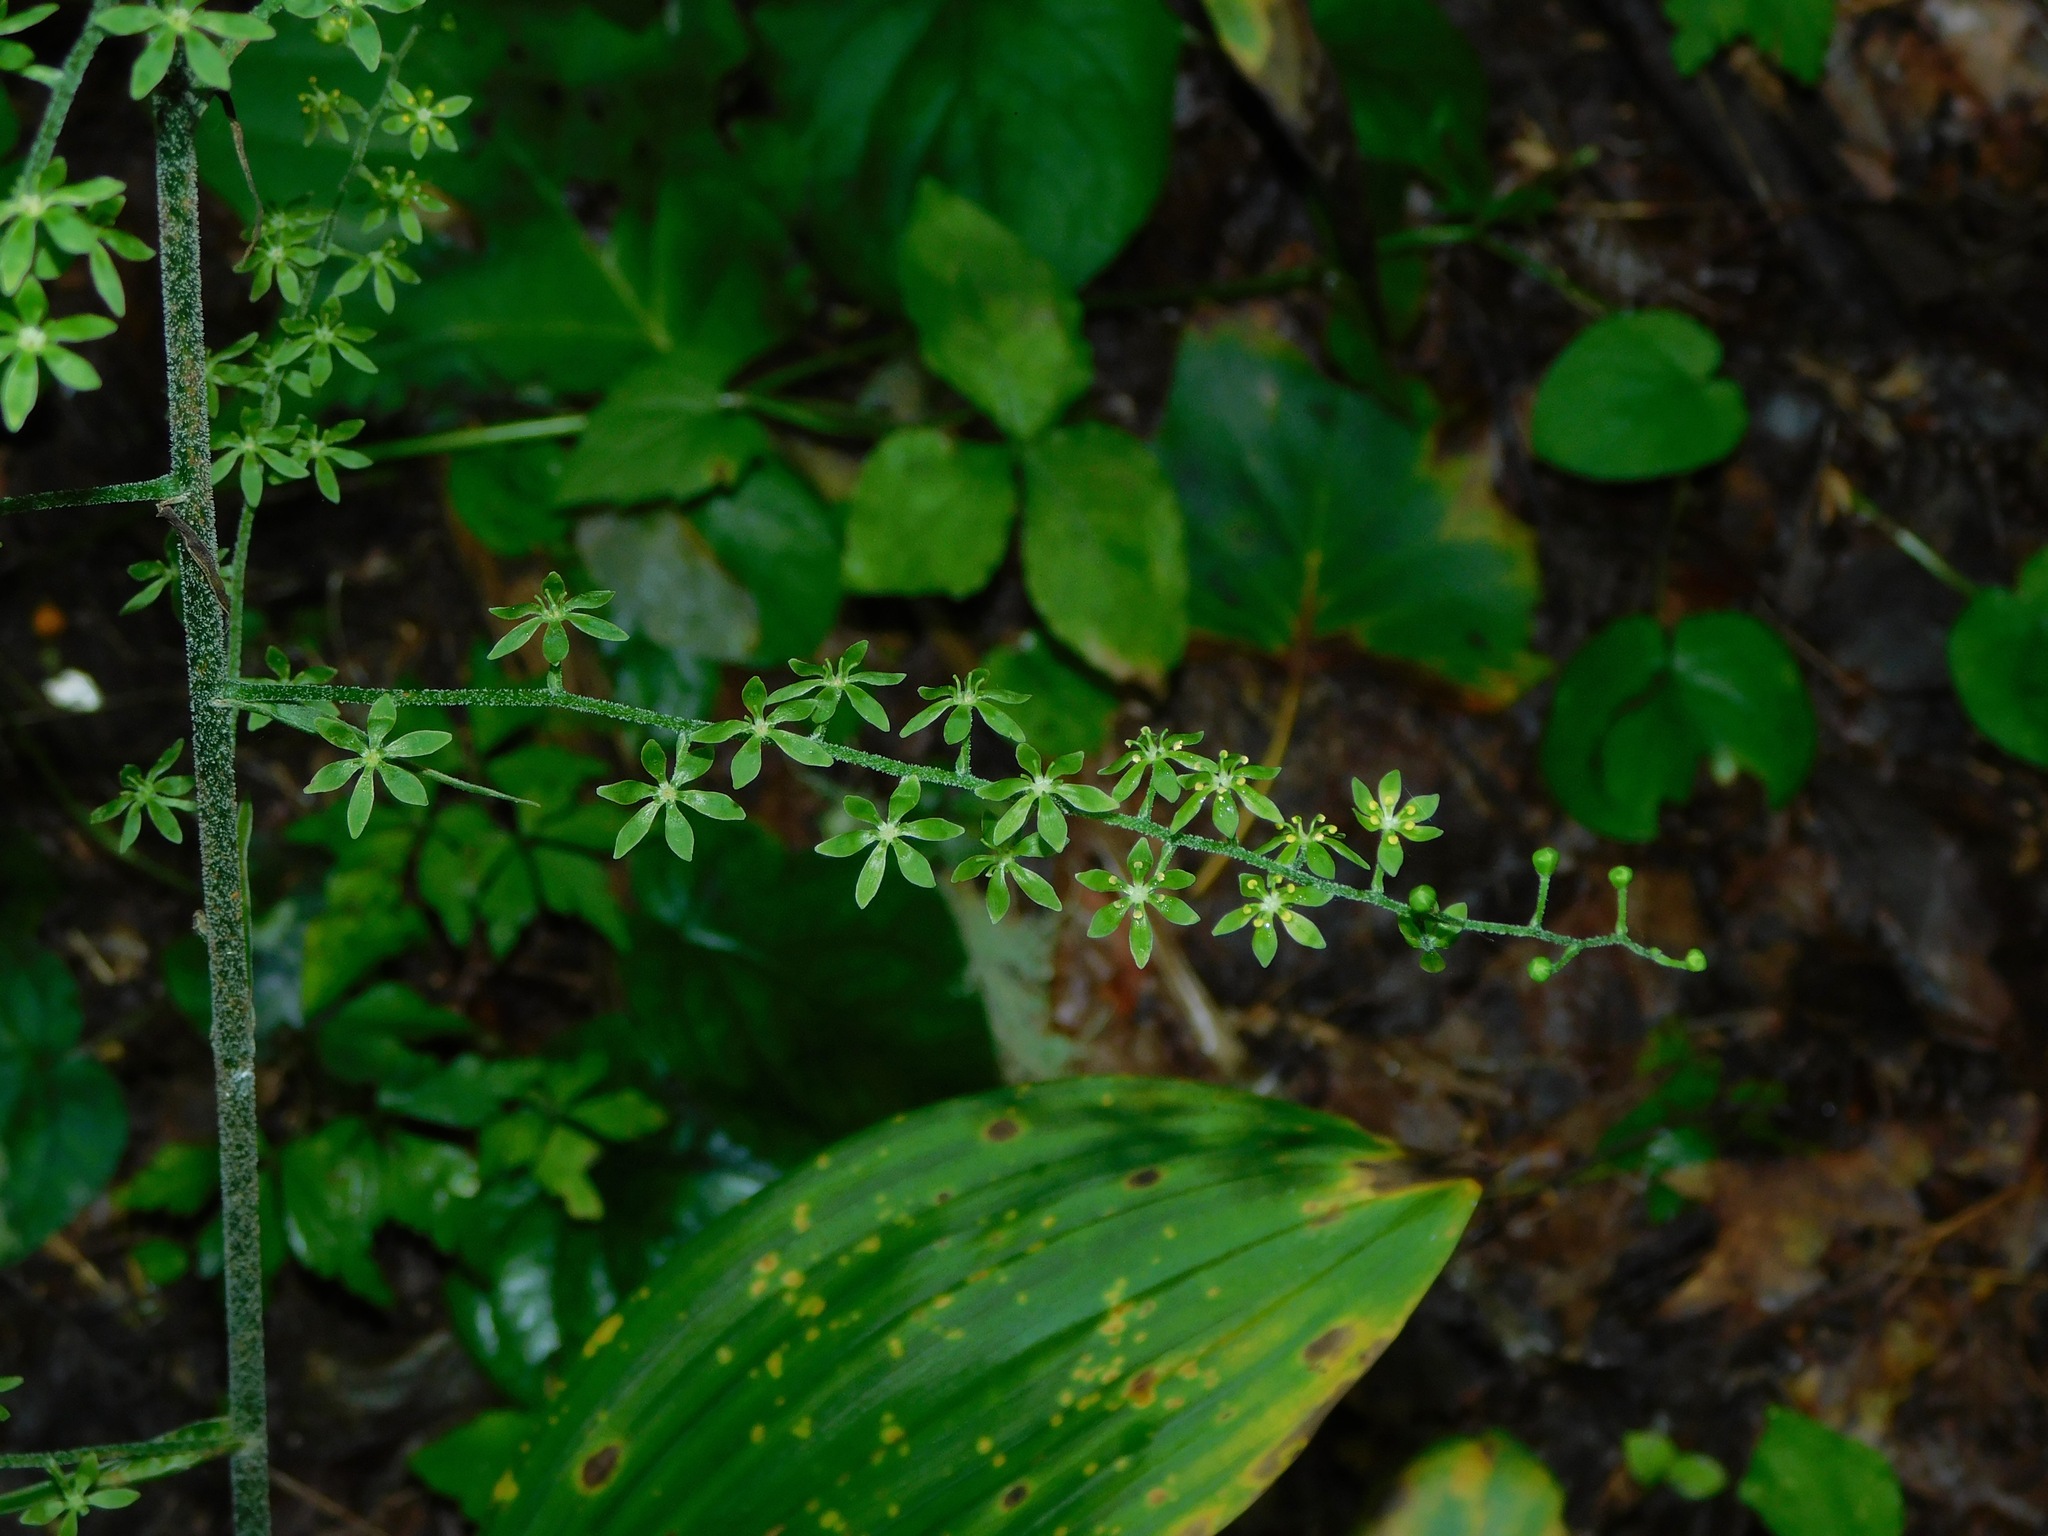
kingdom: Plantae
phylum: Tracheophyta
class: Liliopsida
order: Liliales
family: Melanthiaceae
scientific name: Melanthiaceae
